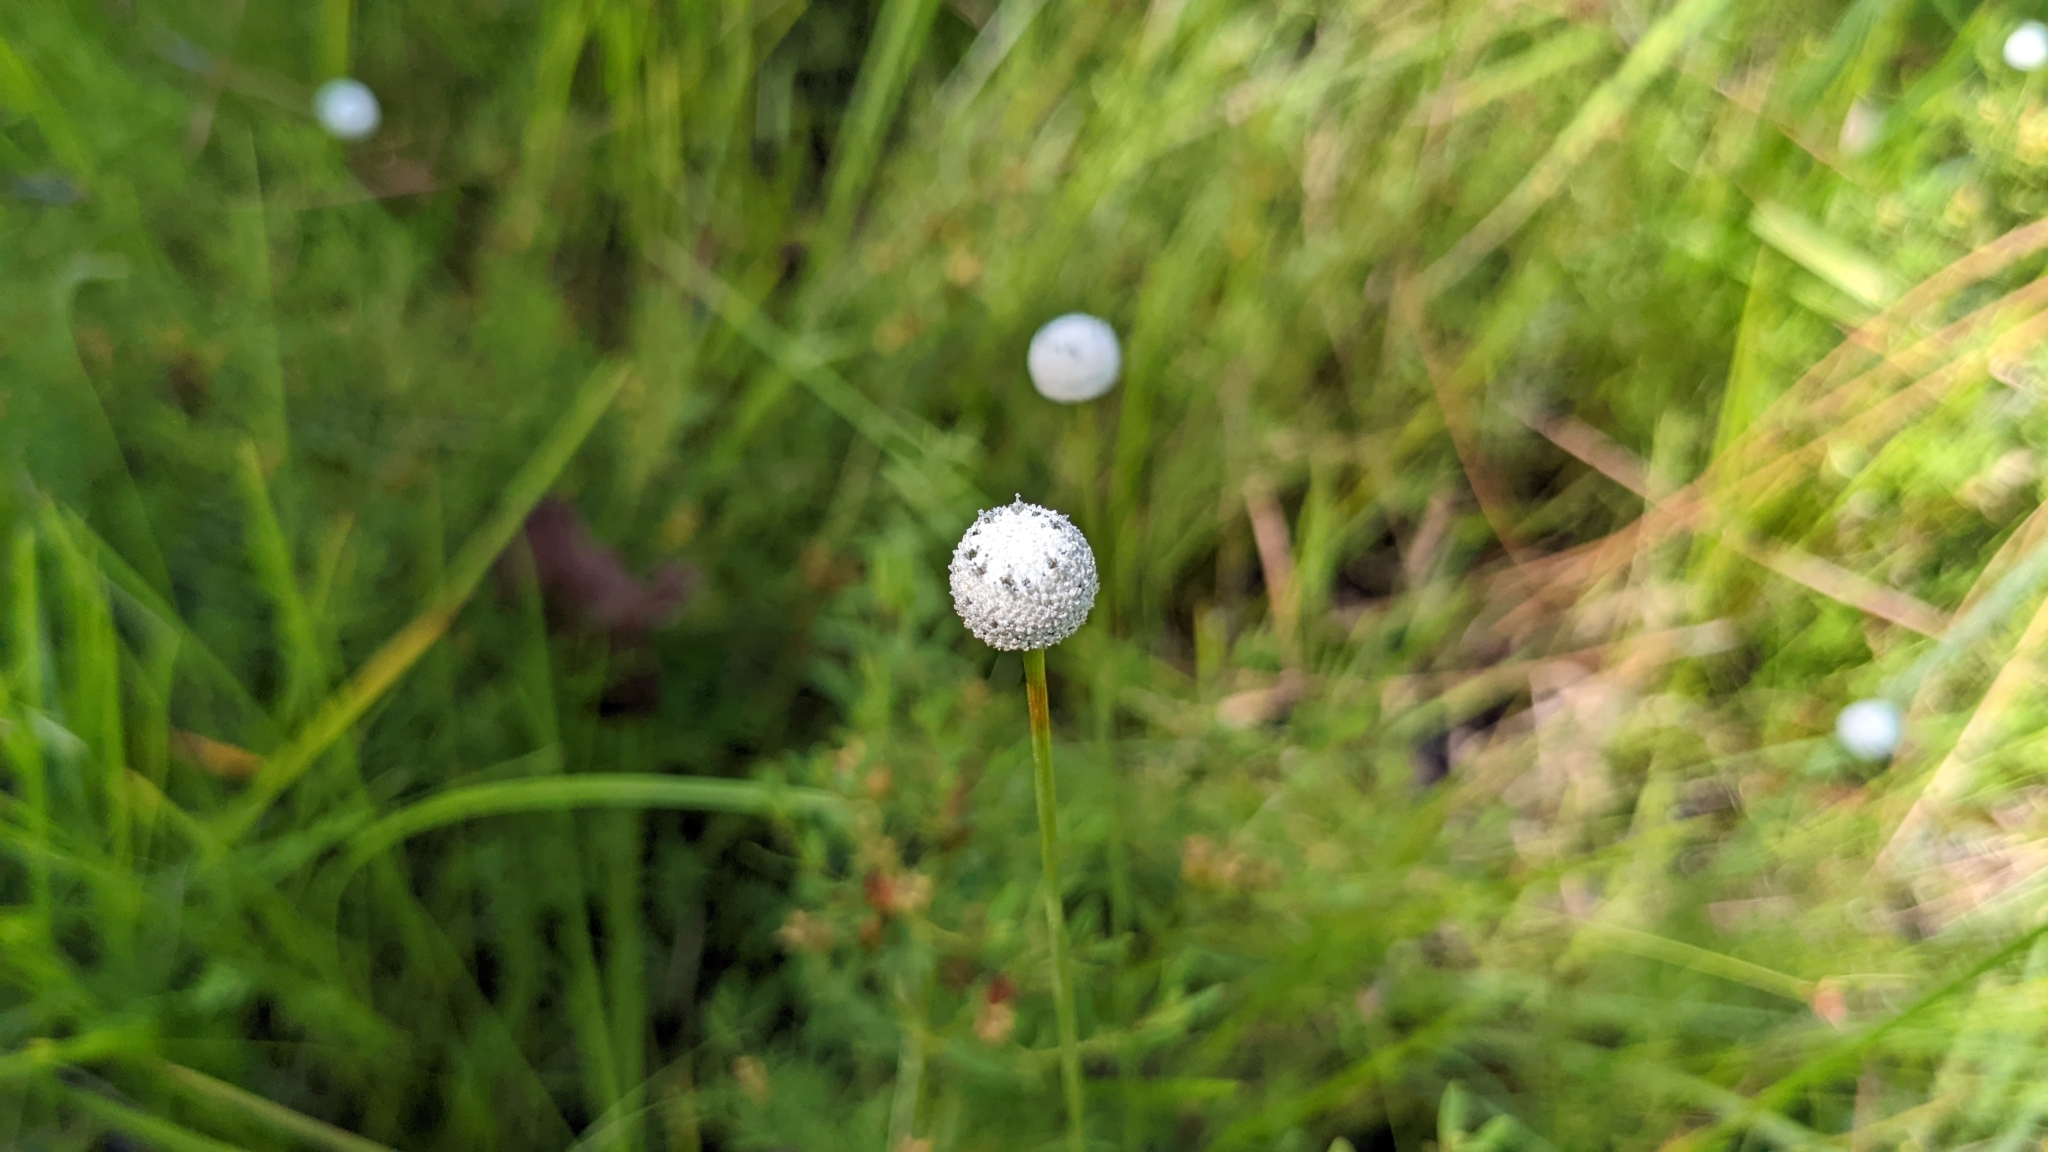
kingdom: Plantae
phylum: Tracheophyta
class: Liliopsida
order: Poales
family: Eriocaulaceae
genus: Eriocaulon
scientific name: Eriocaulon decangulare
